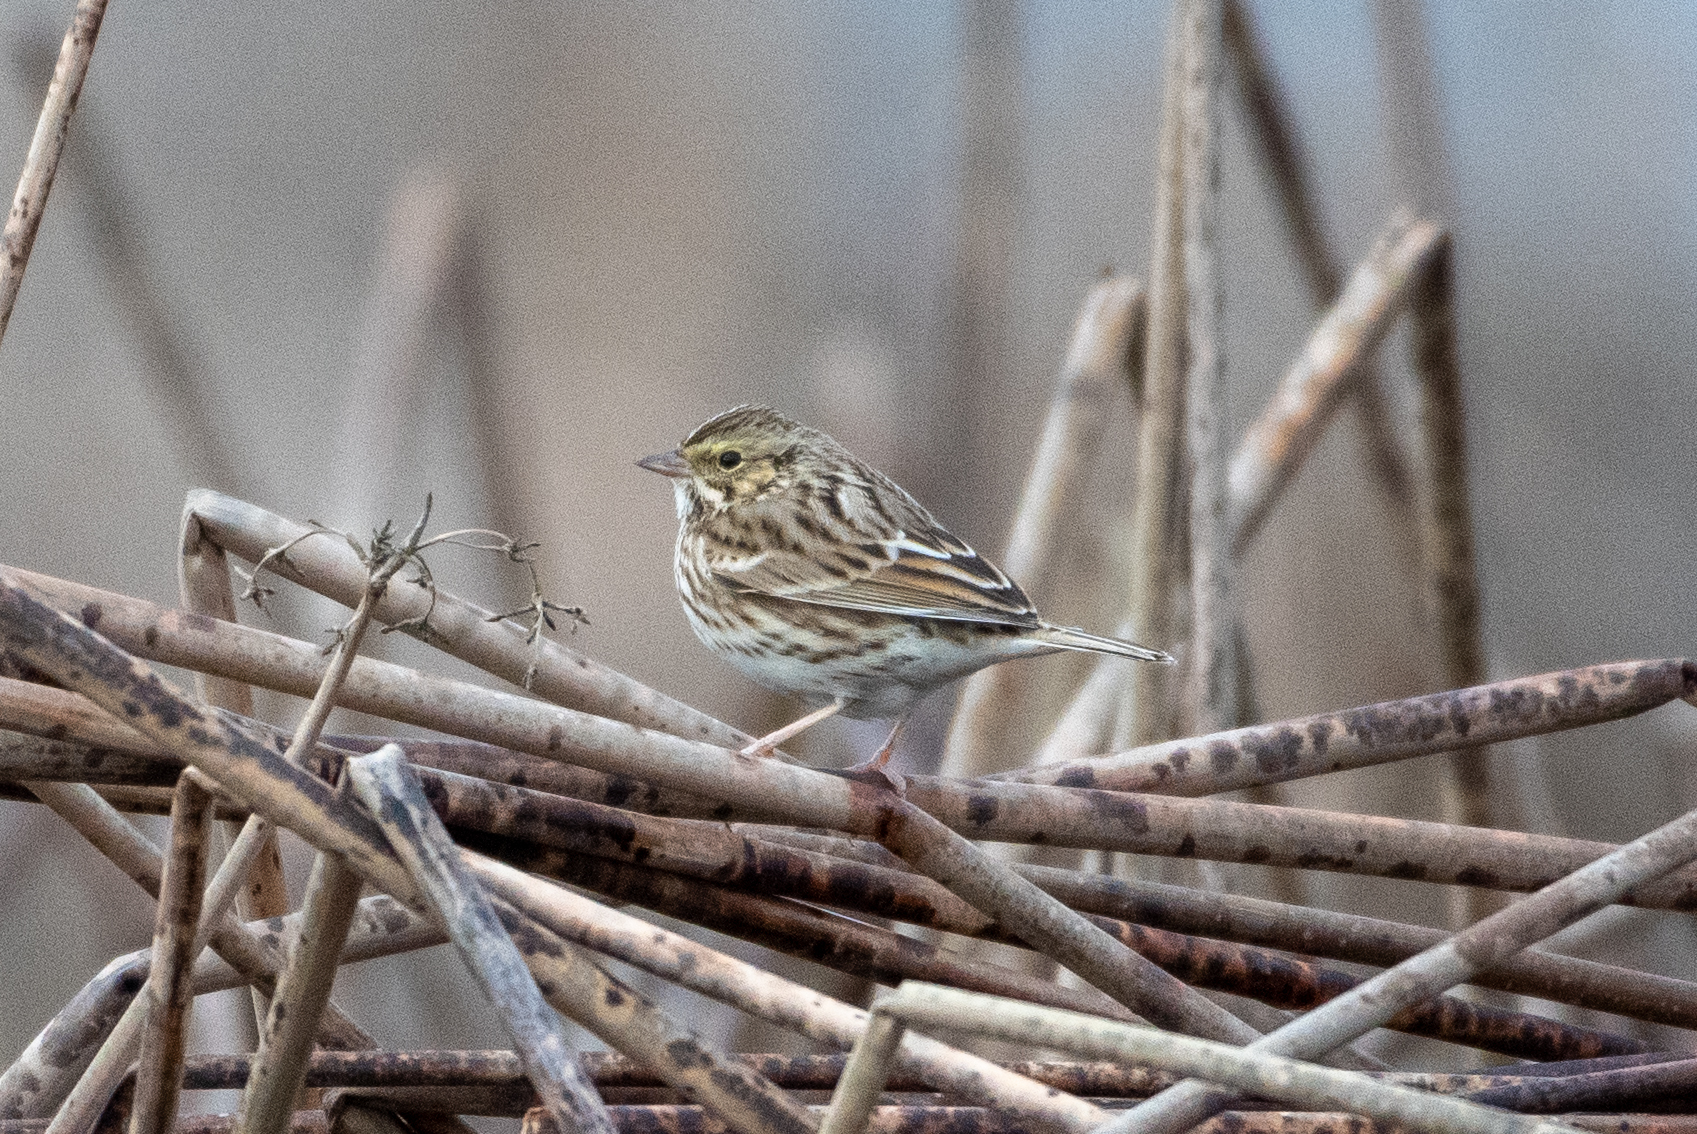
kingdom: Animalia
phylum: Chordata
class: Aves
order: Passeriformes
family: Passerellidae
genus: Passerculus
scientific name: Passerculus sandwichensis
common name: Savannah sparrow
